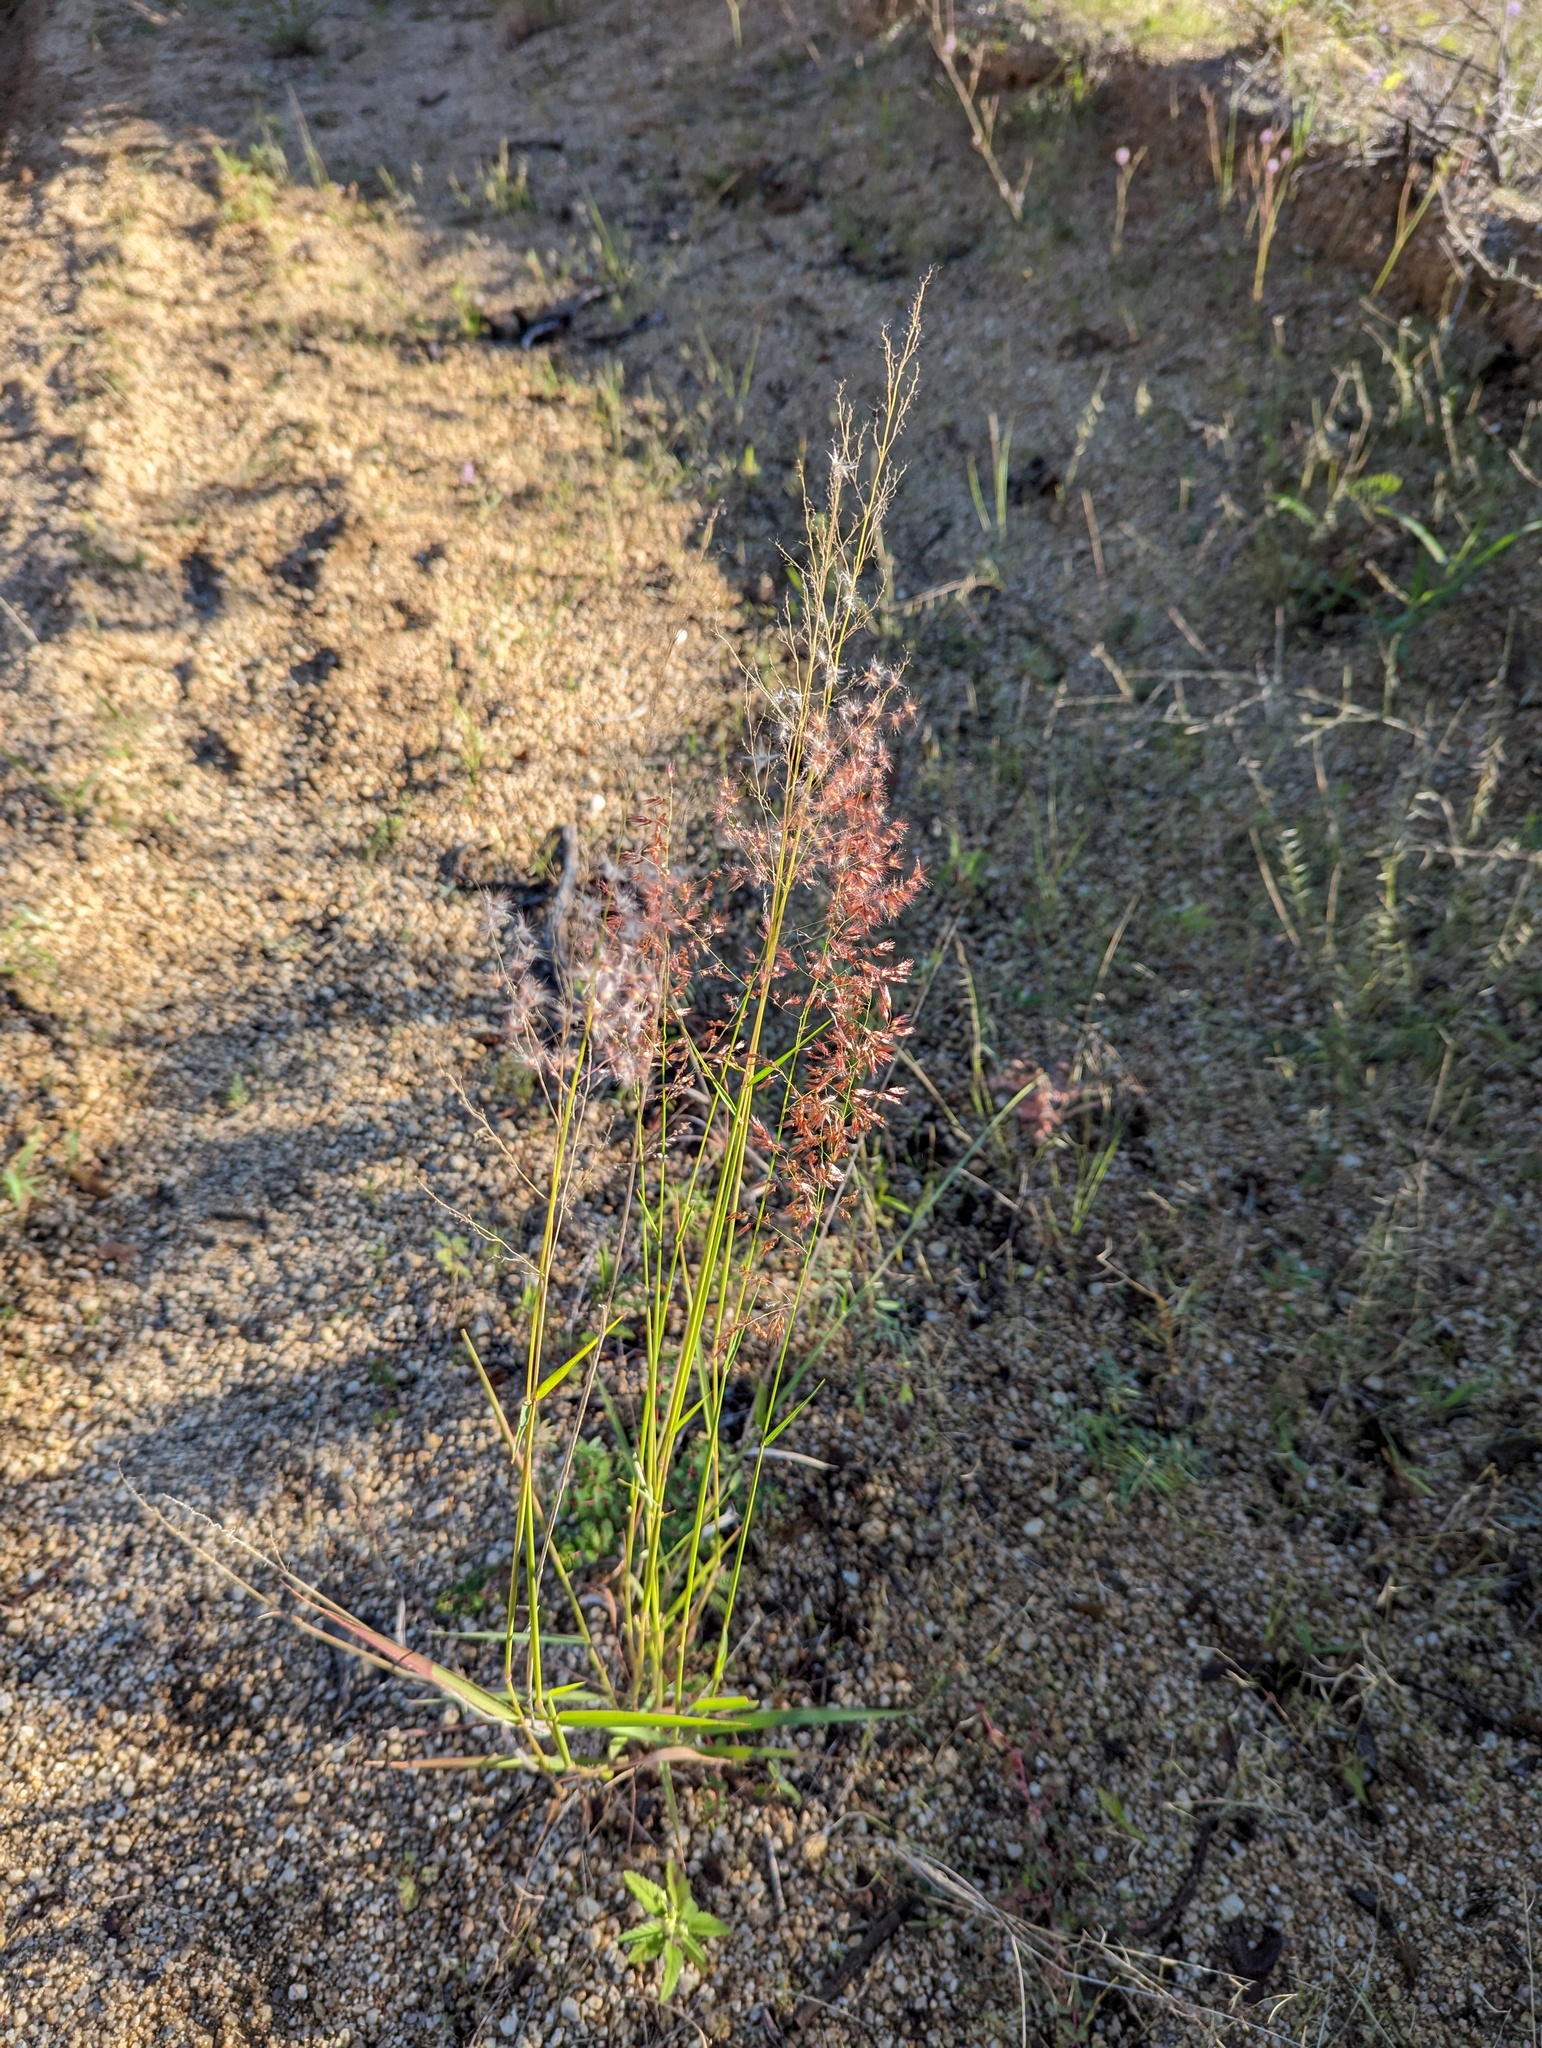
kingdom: Plantae
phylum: Tracheophyta
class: Liliopsida
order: Poales
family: Poaceae
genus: Melinis
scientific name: Melinis repens
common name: Rose natal grass
